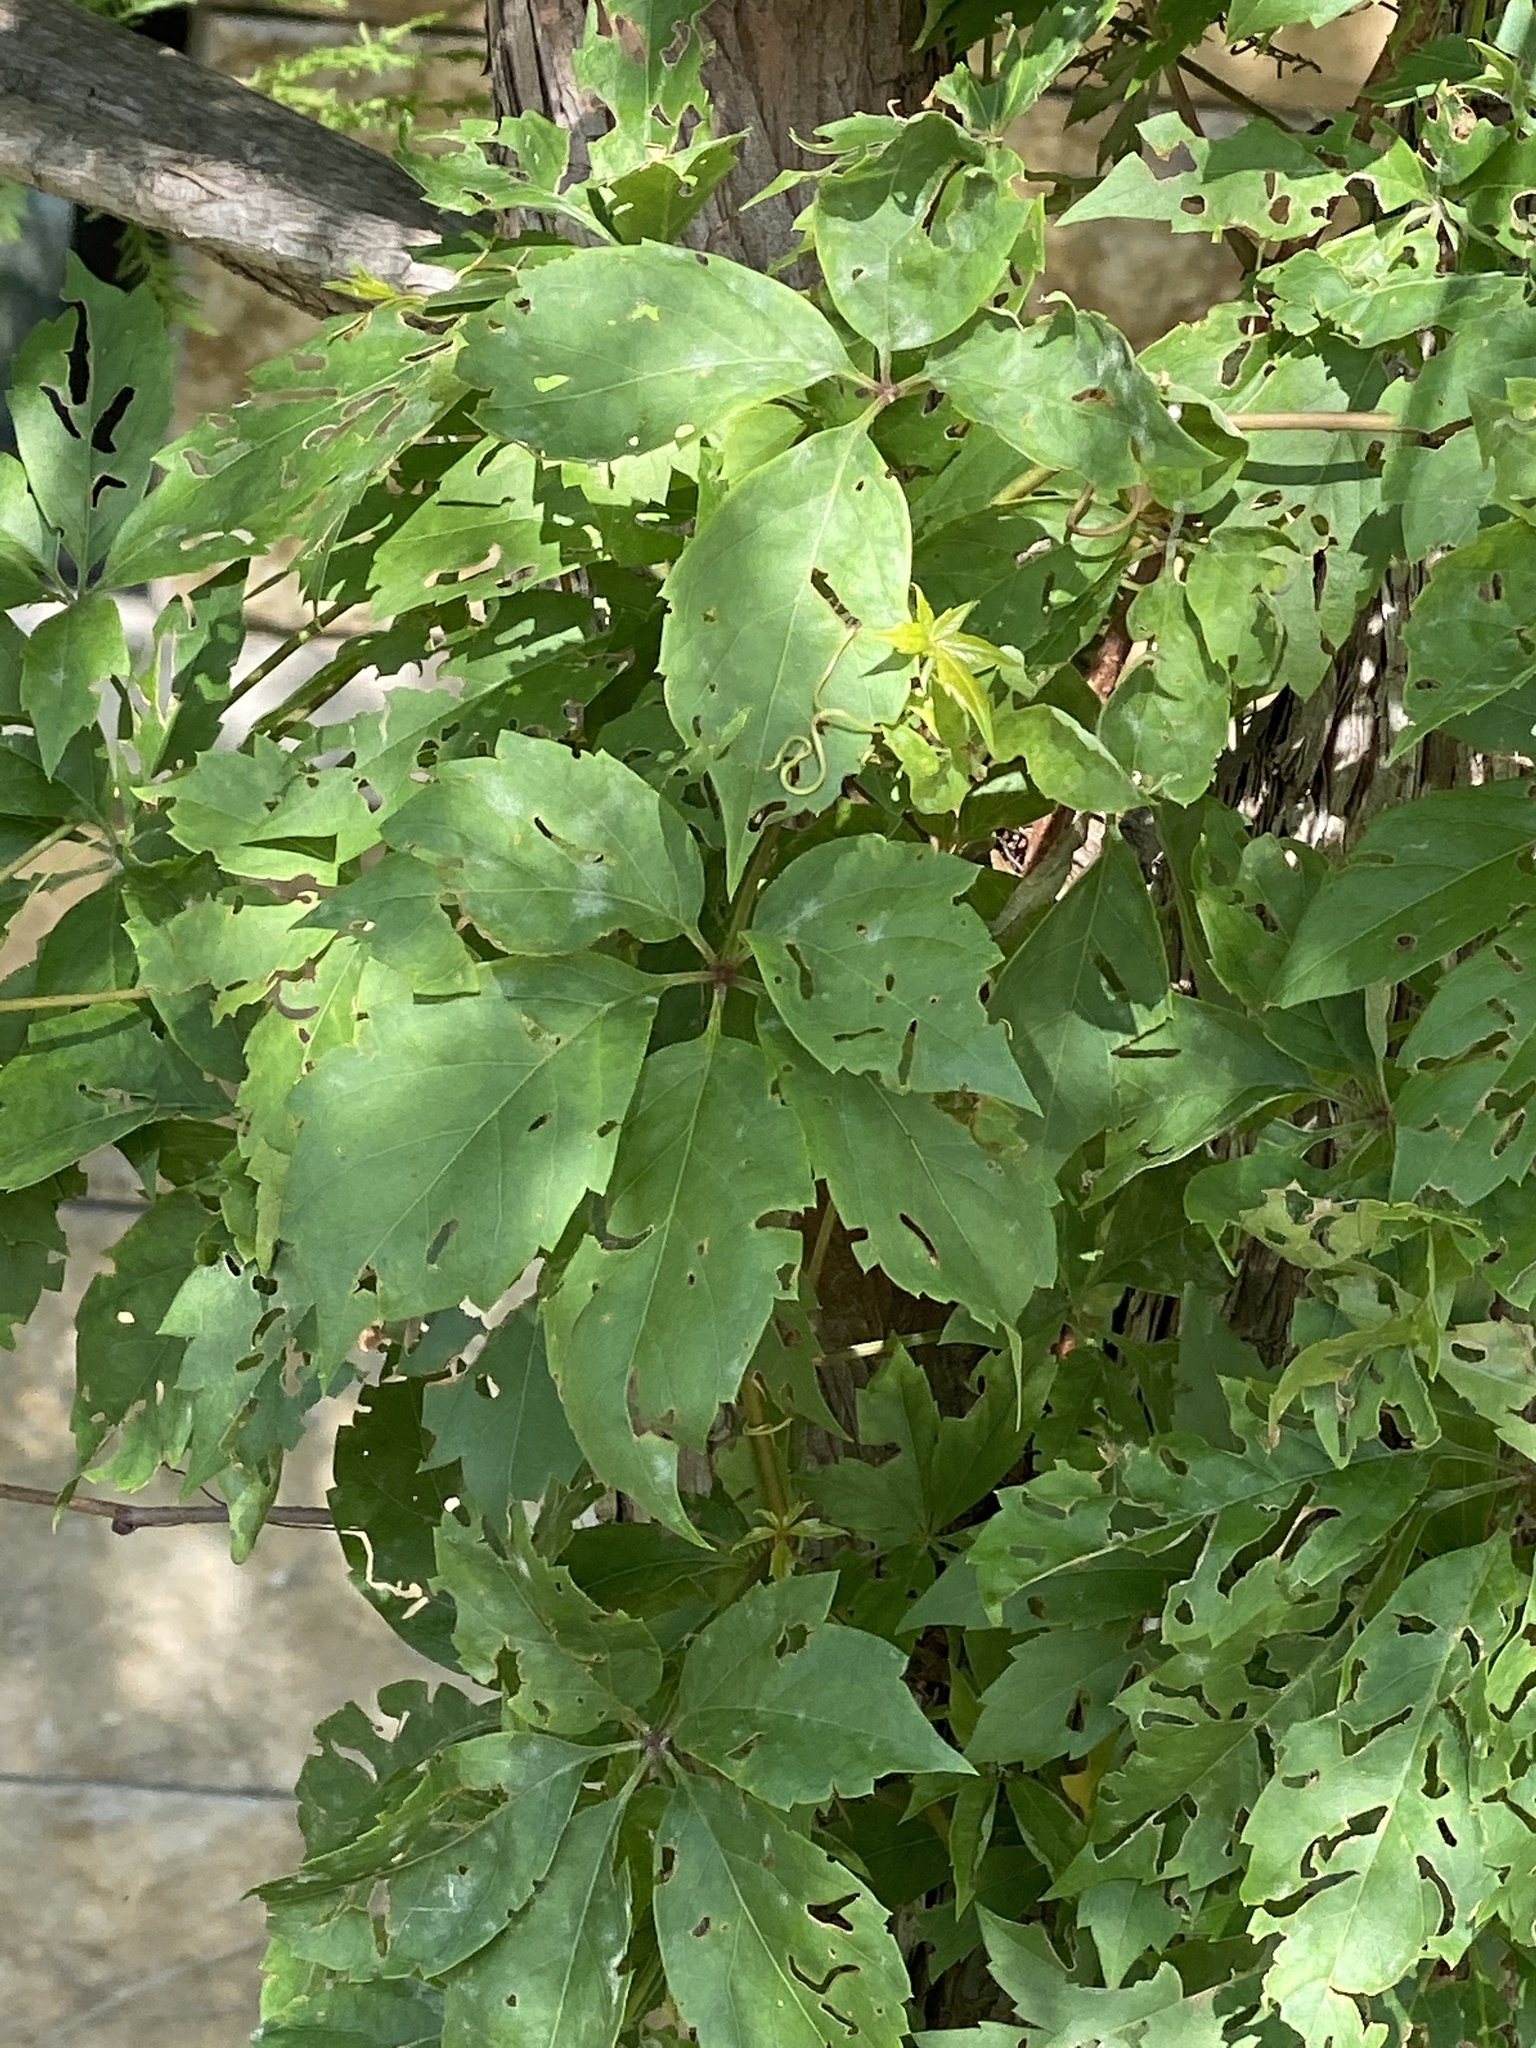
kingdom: Plantae
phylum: Tracheophyta
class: Magnoliopsida
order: Vitales
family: Vitaceae
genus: Parthenocissus
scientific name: Parthenocissus quinquefolia
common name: Virginia-creeper
